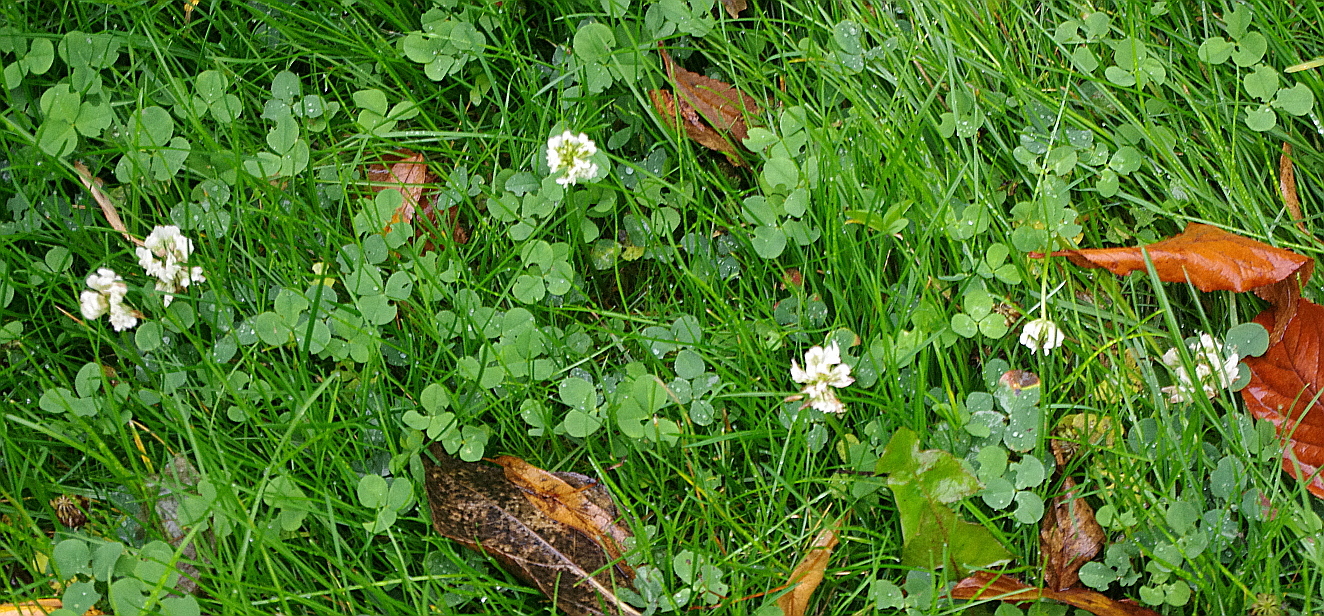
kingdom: Plantae
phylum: Tracheophyta
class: Magnoliopsida
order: Fabales
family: Fabaceae
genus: Trifolium
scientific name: Trifolium repens
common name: White clover
